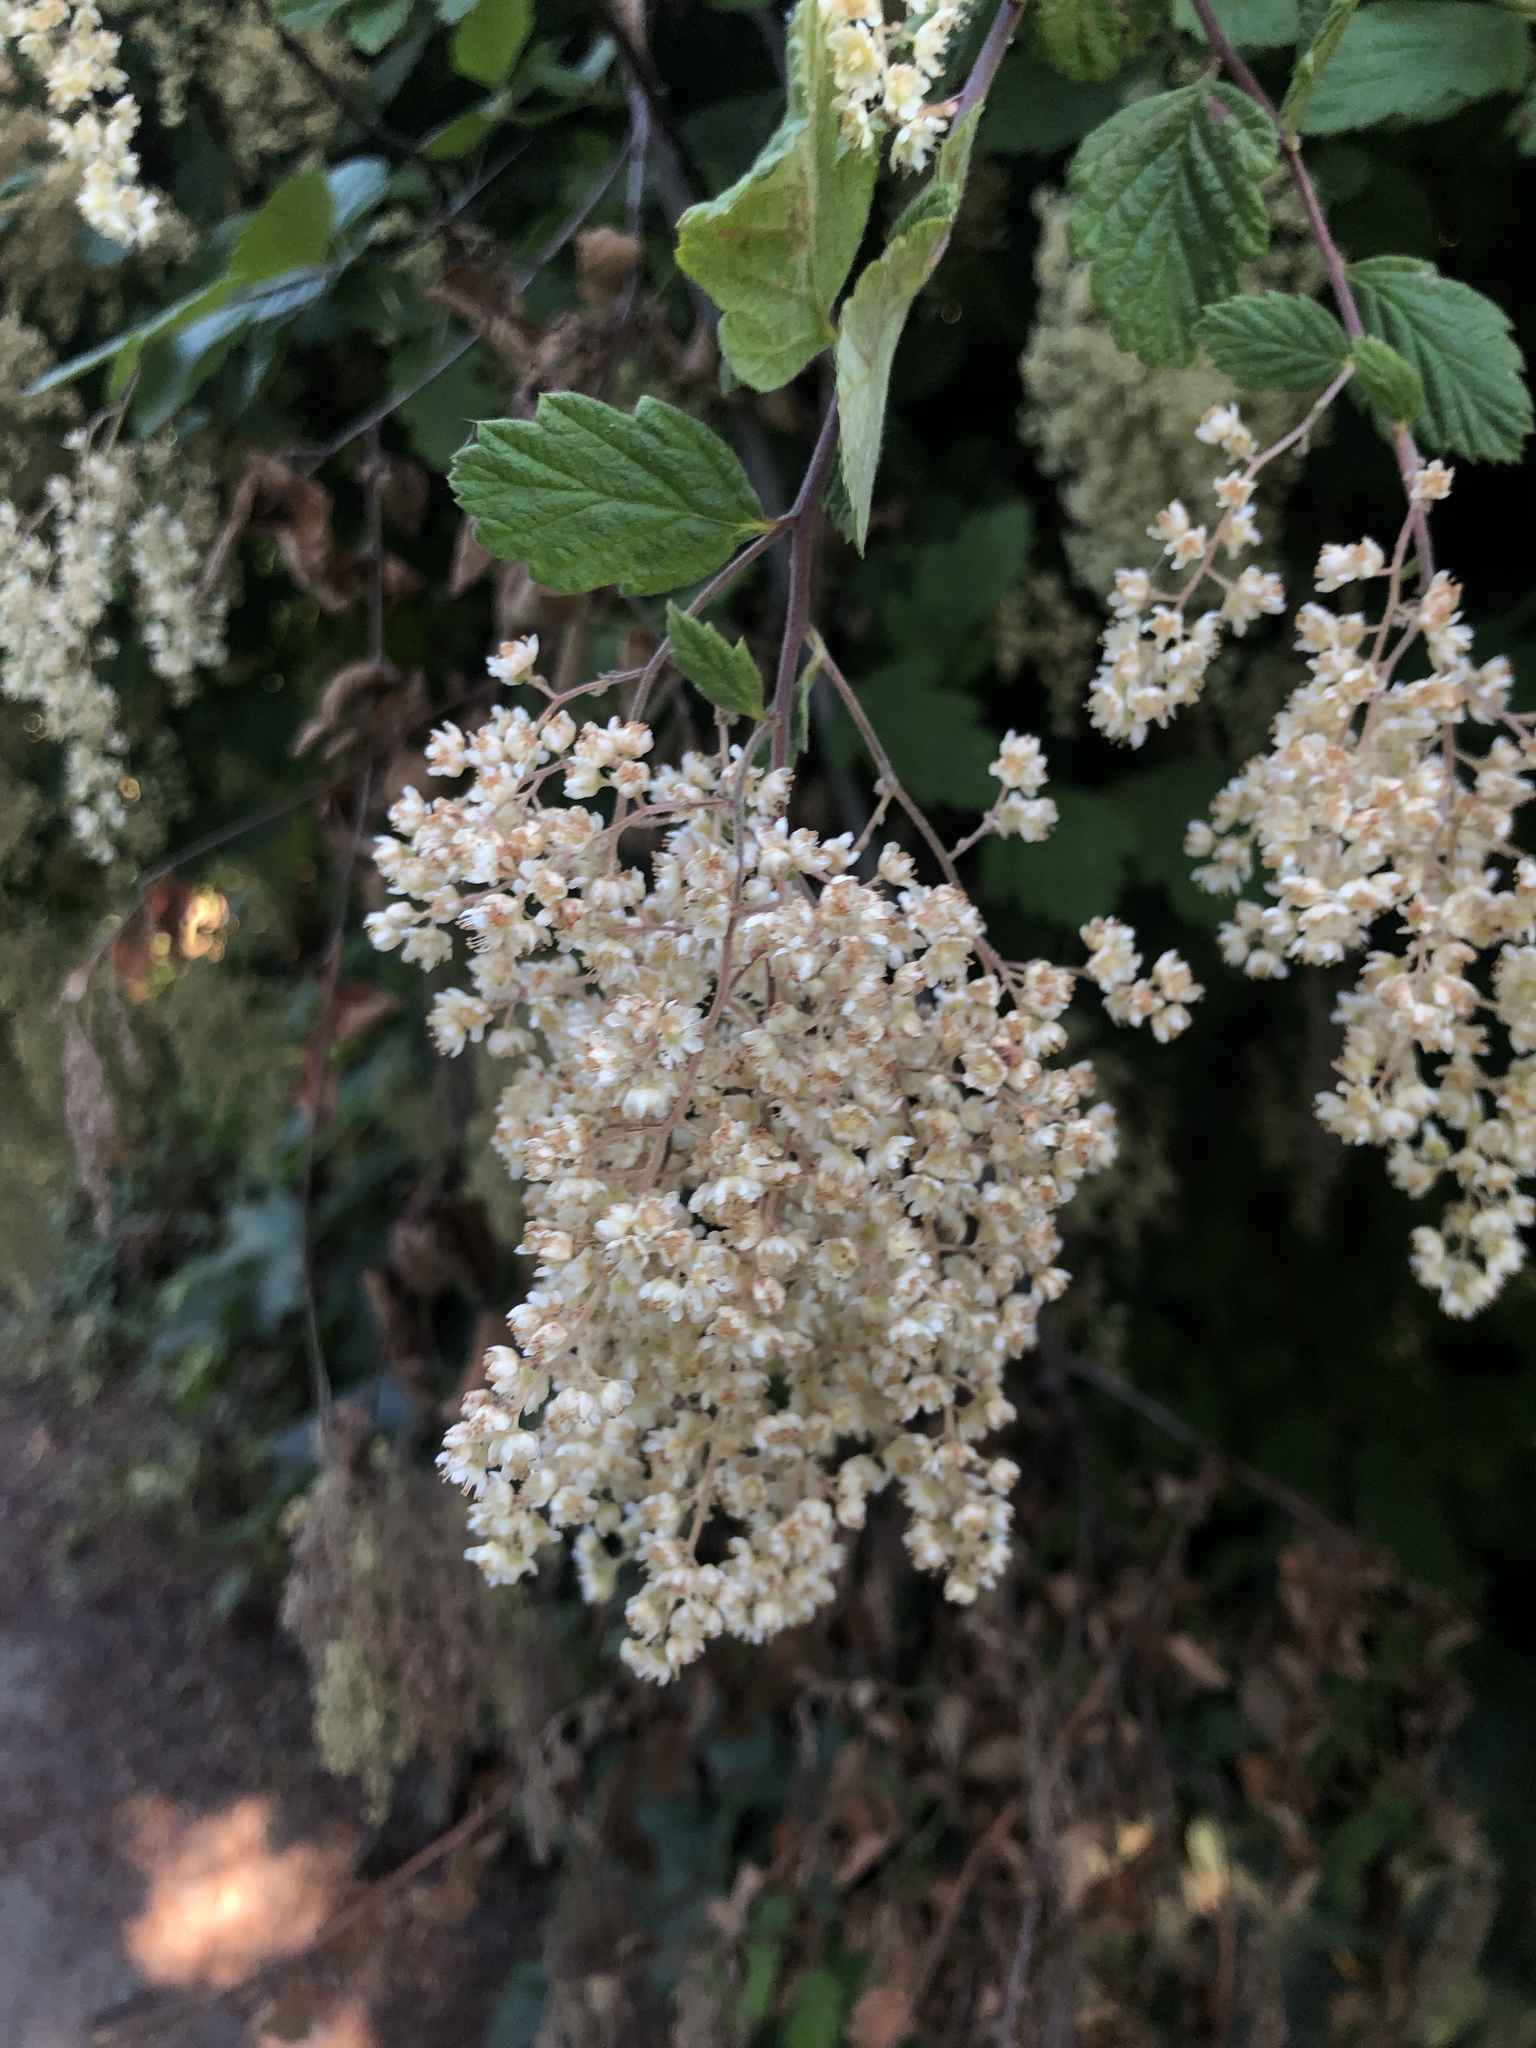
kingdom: Plantae
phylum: Tracheophyta
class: Magnoliopsida
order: Rosales
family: Rosaceae
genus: Holodiscus
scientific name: Holodiscus discolor
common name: Oceanspray
